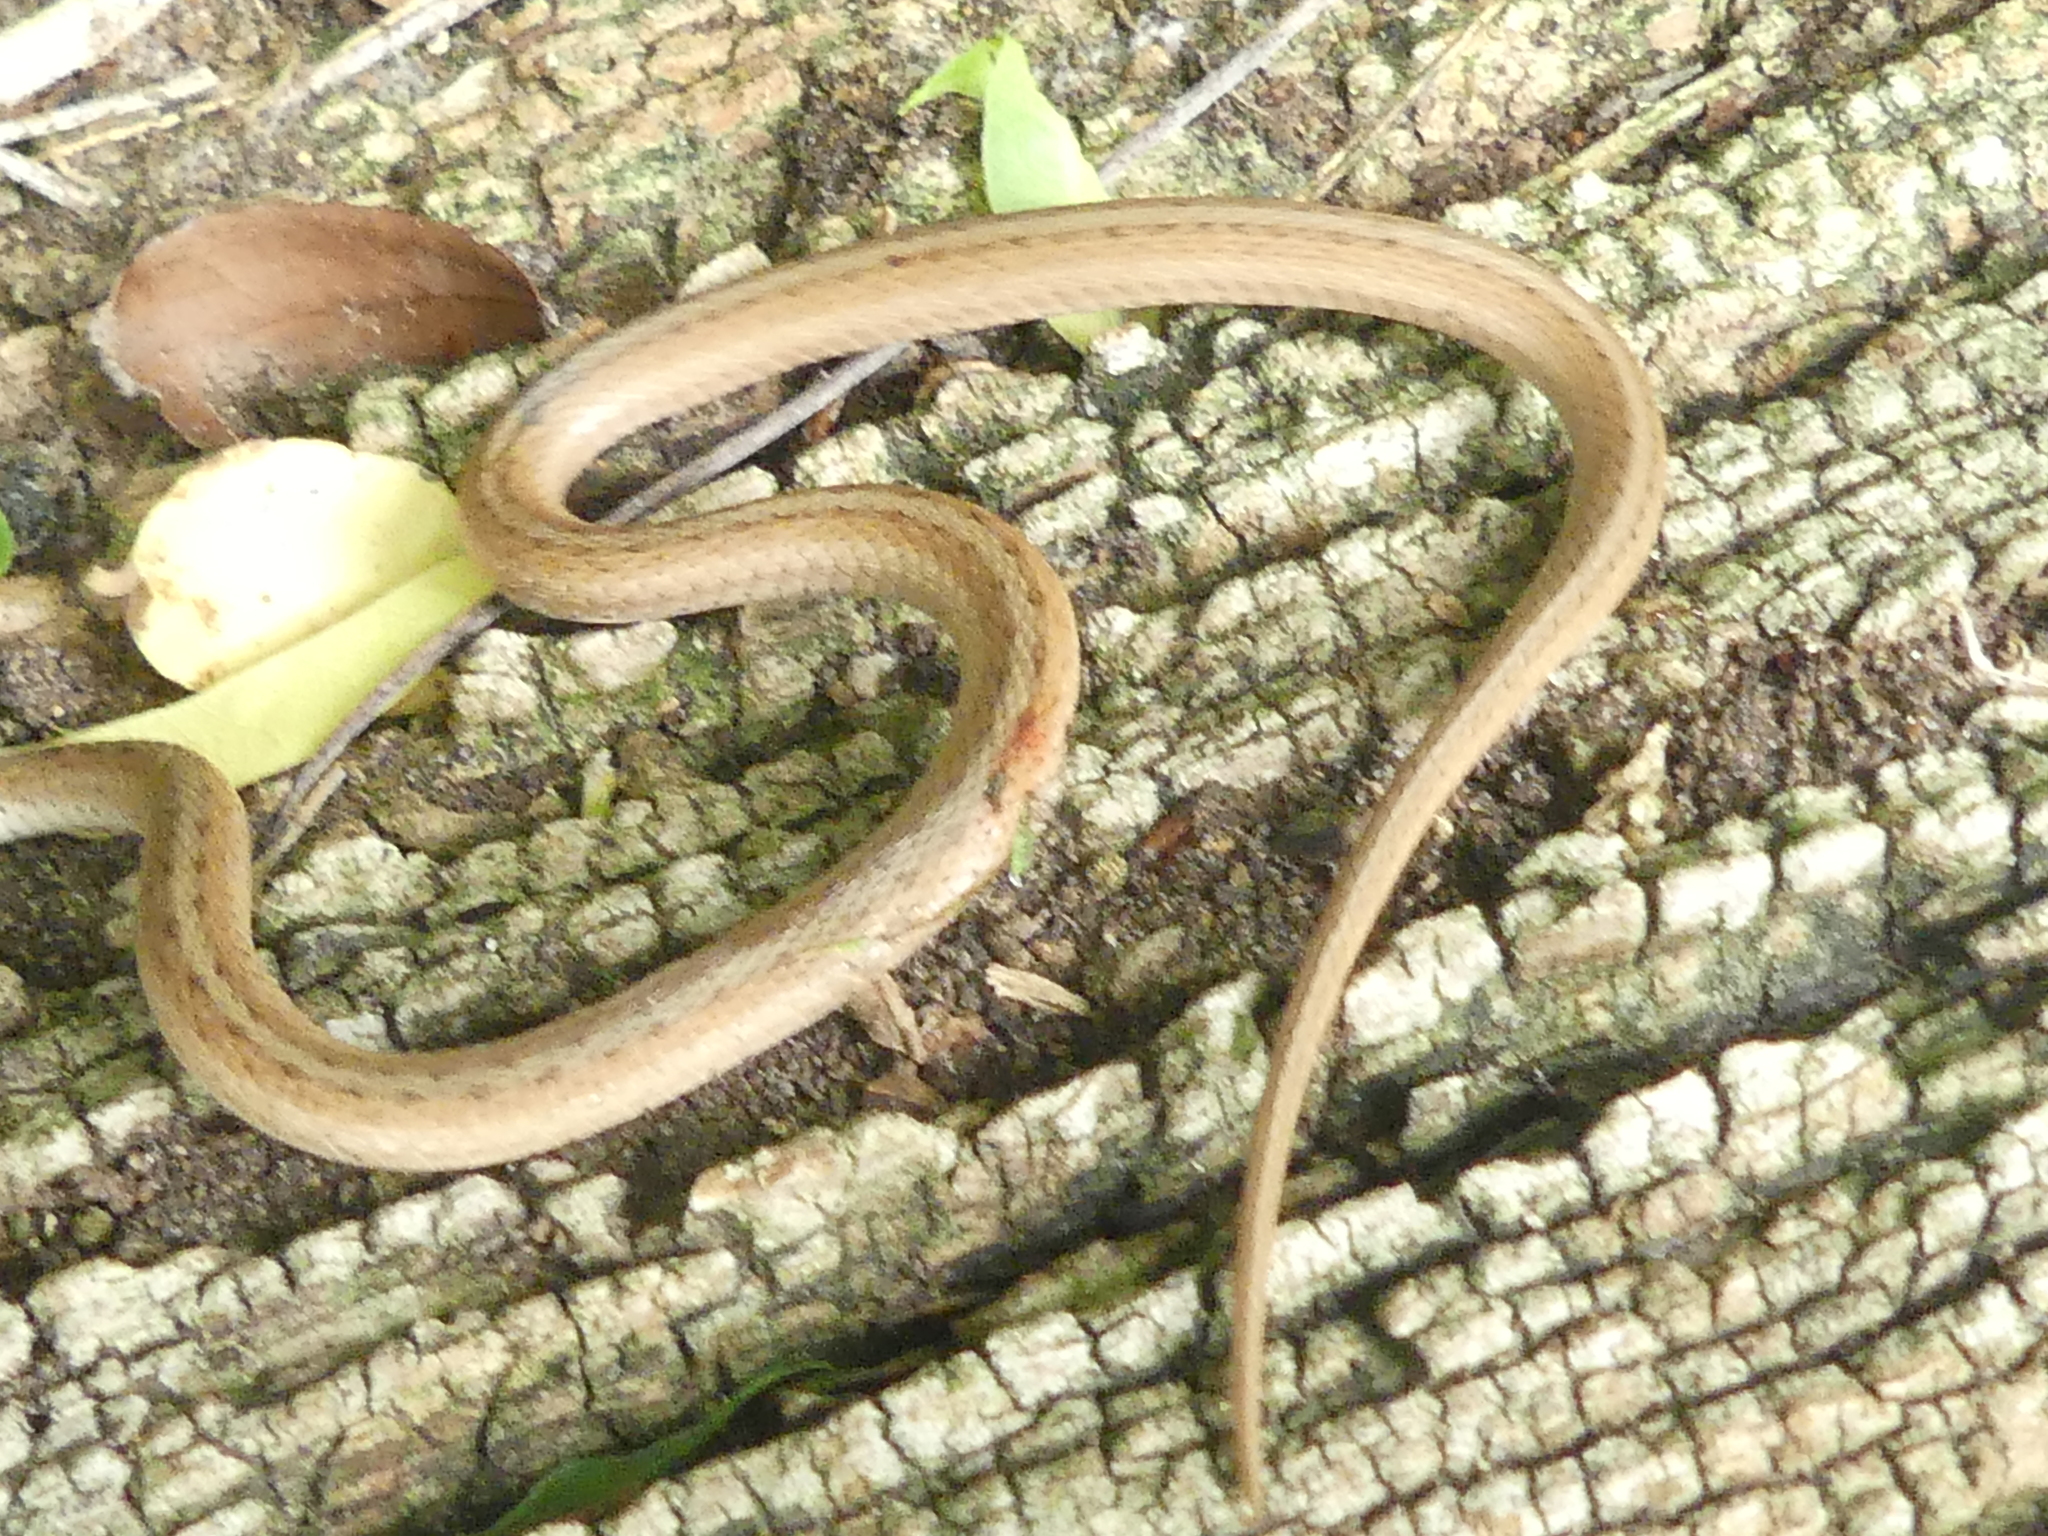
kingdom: Animalia
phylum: Chordata
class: Squamata
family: Colubridae
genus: Storeria
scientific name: Storeria dekayi
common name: (dekay’s) brown snake
